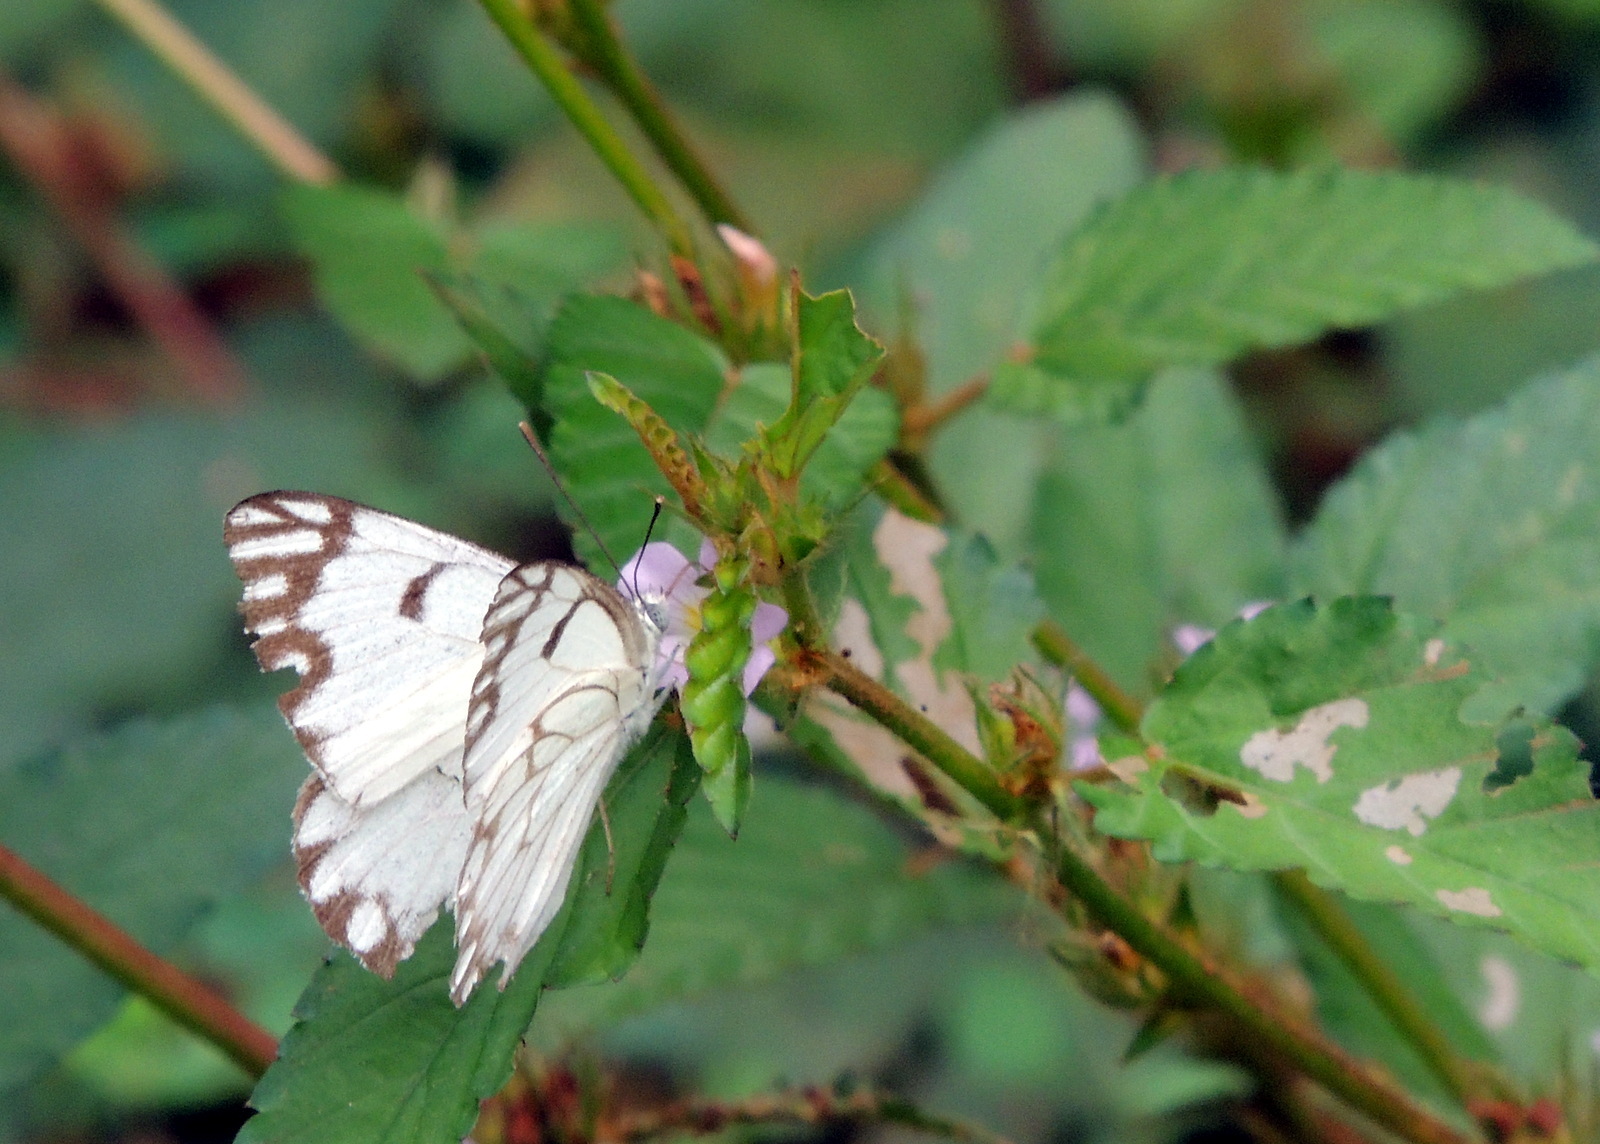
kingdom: Animalia
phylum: Arthropoda
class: Insecta
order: Lepidoptera
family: Pieridae
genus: Belenois
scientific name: Belenois aurota
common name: Brown-veined white
